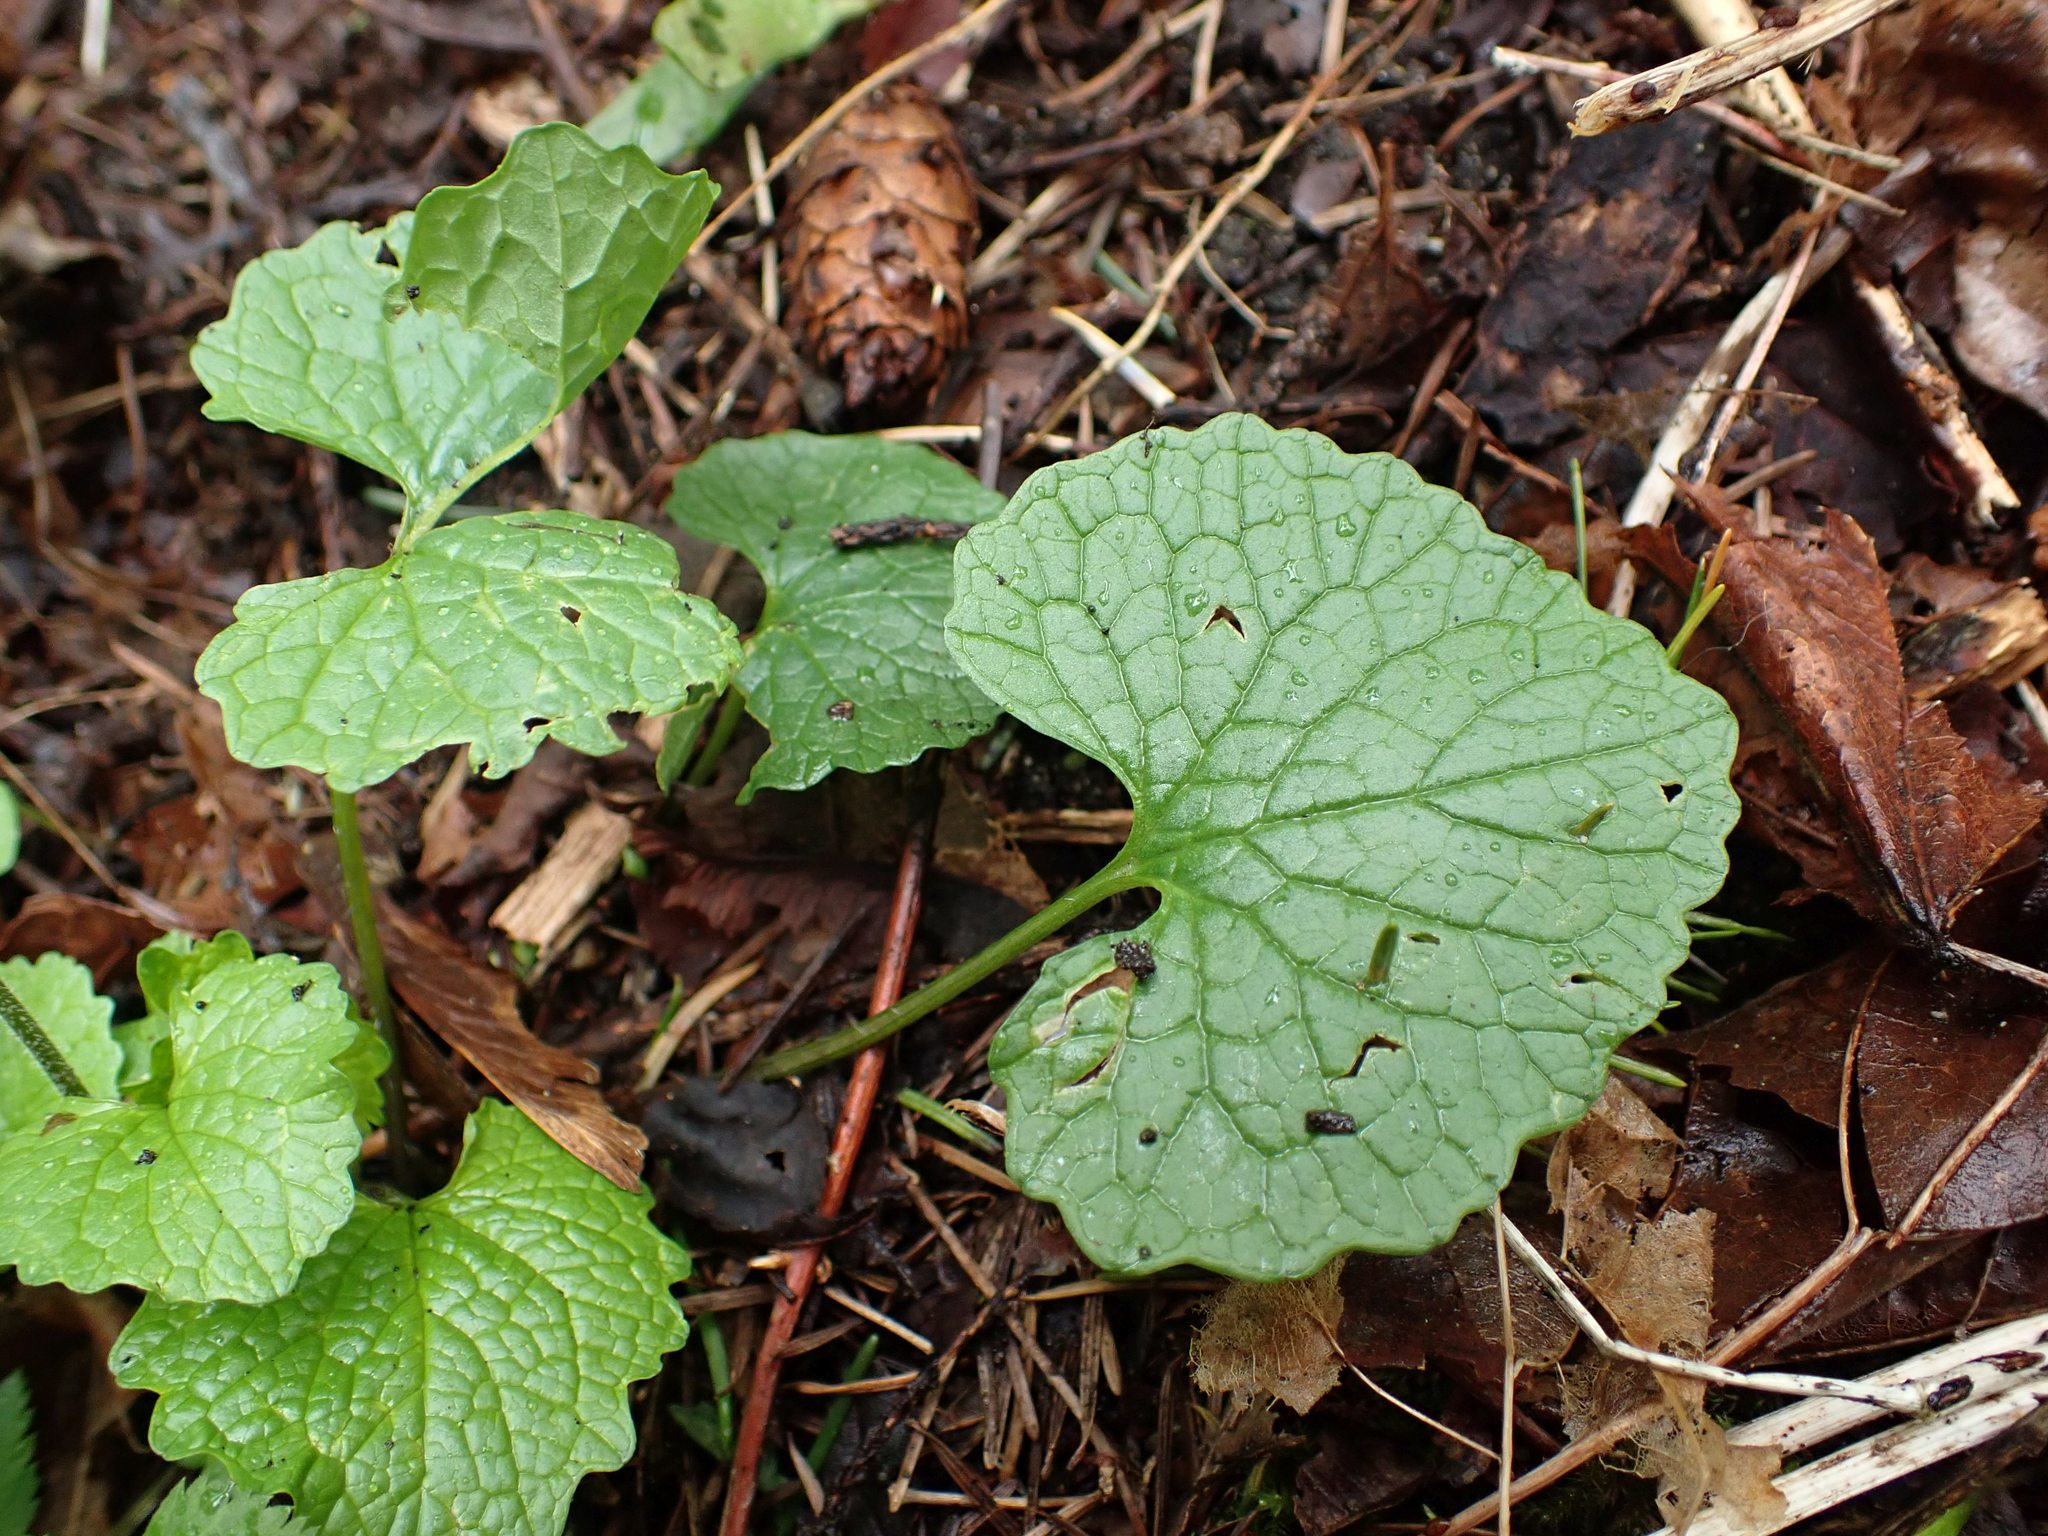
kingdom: Plantae
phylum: Tracheophyta
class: Magnoliopsida
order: Brassicales
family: Brassicaceae
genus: Alliaria
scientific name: Alliaria petiolata
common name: Garlic mustard
